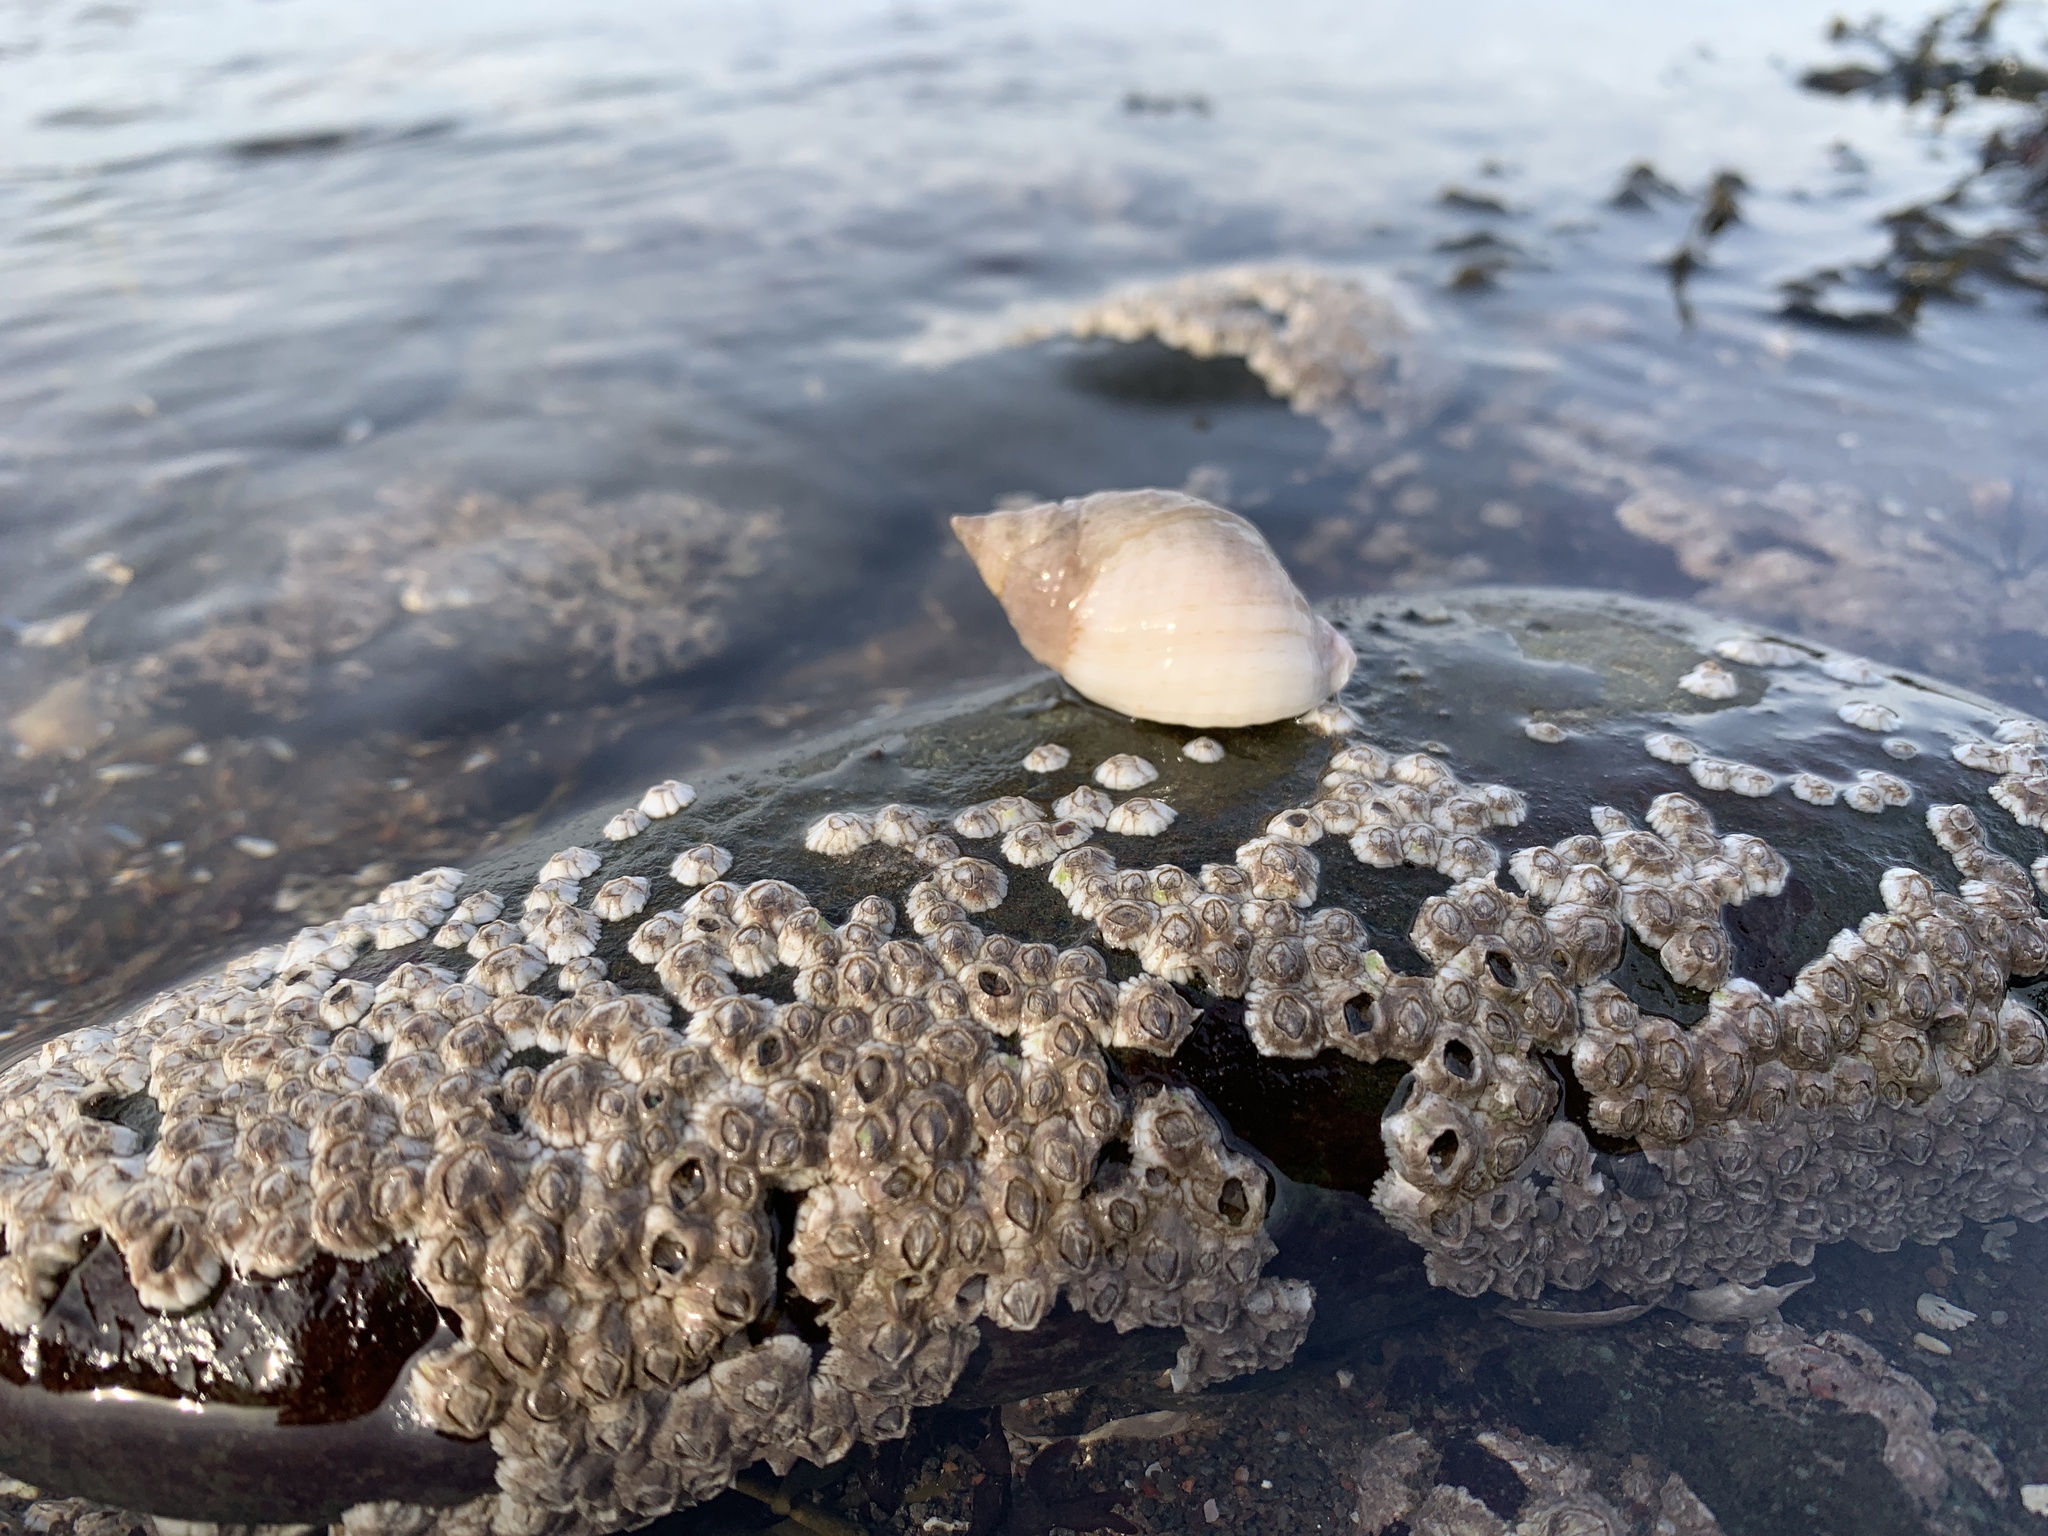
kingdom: Animalia
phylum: Mollusca
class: Gastropoda
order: Neogastropoda
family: Muricidae
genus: Nucella
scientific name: Nucella lapillus
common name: Dog whelk
